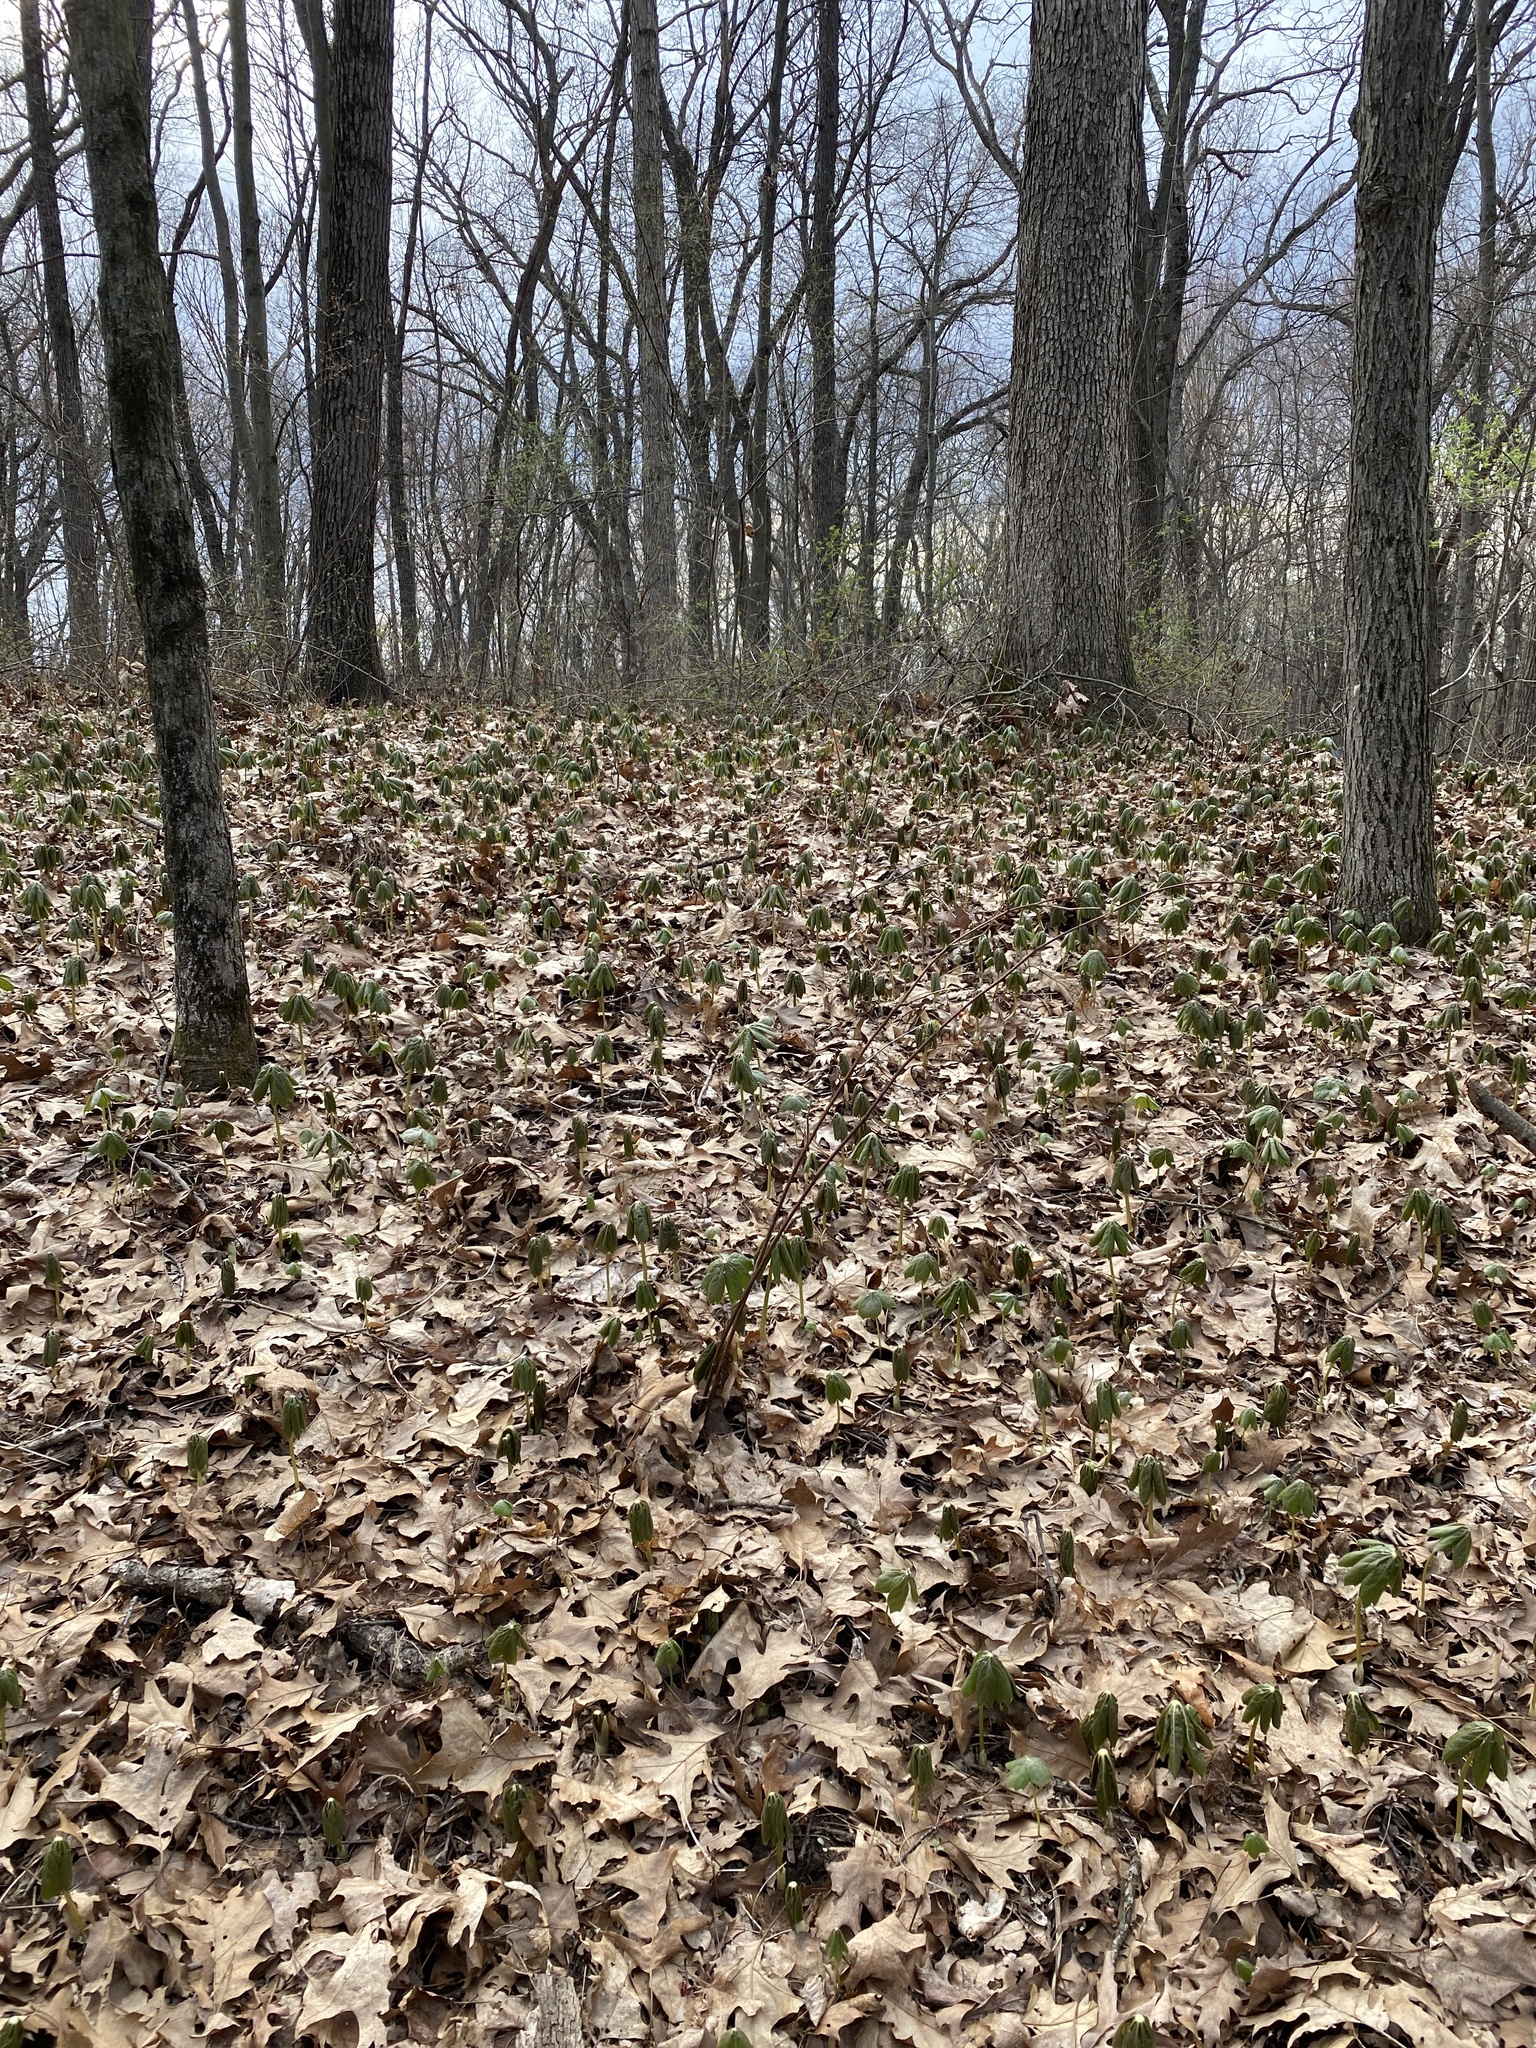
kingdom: Plantae
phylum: Tracheophyta
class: Magnoliopsida
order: Ranunculales
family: Berberidaceae
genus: Podophyllum
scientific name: Podophyllum peltatum
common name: Wild mandrake
